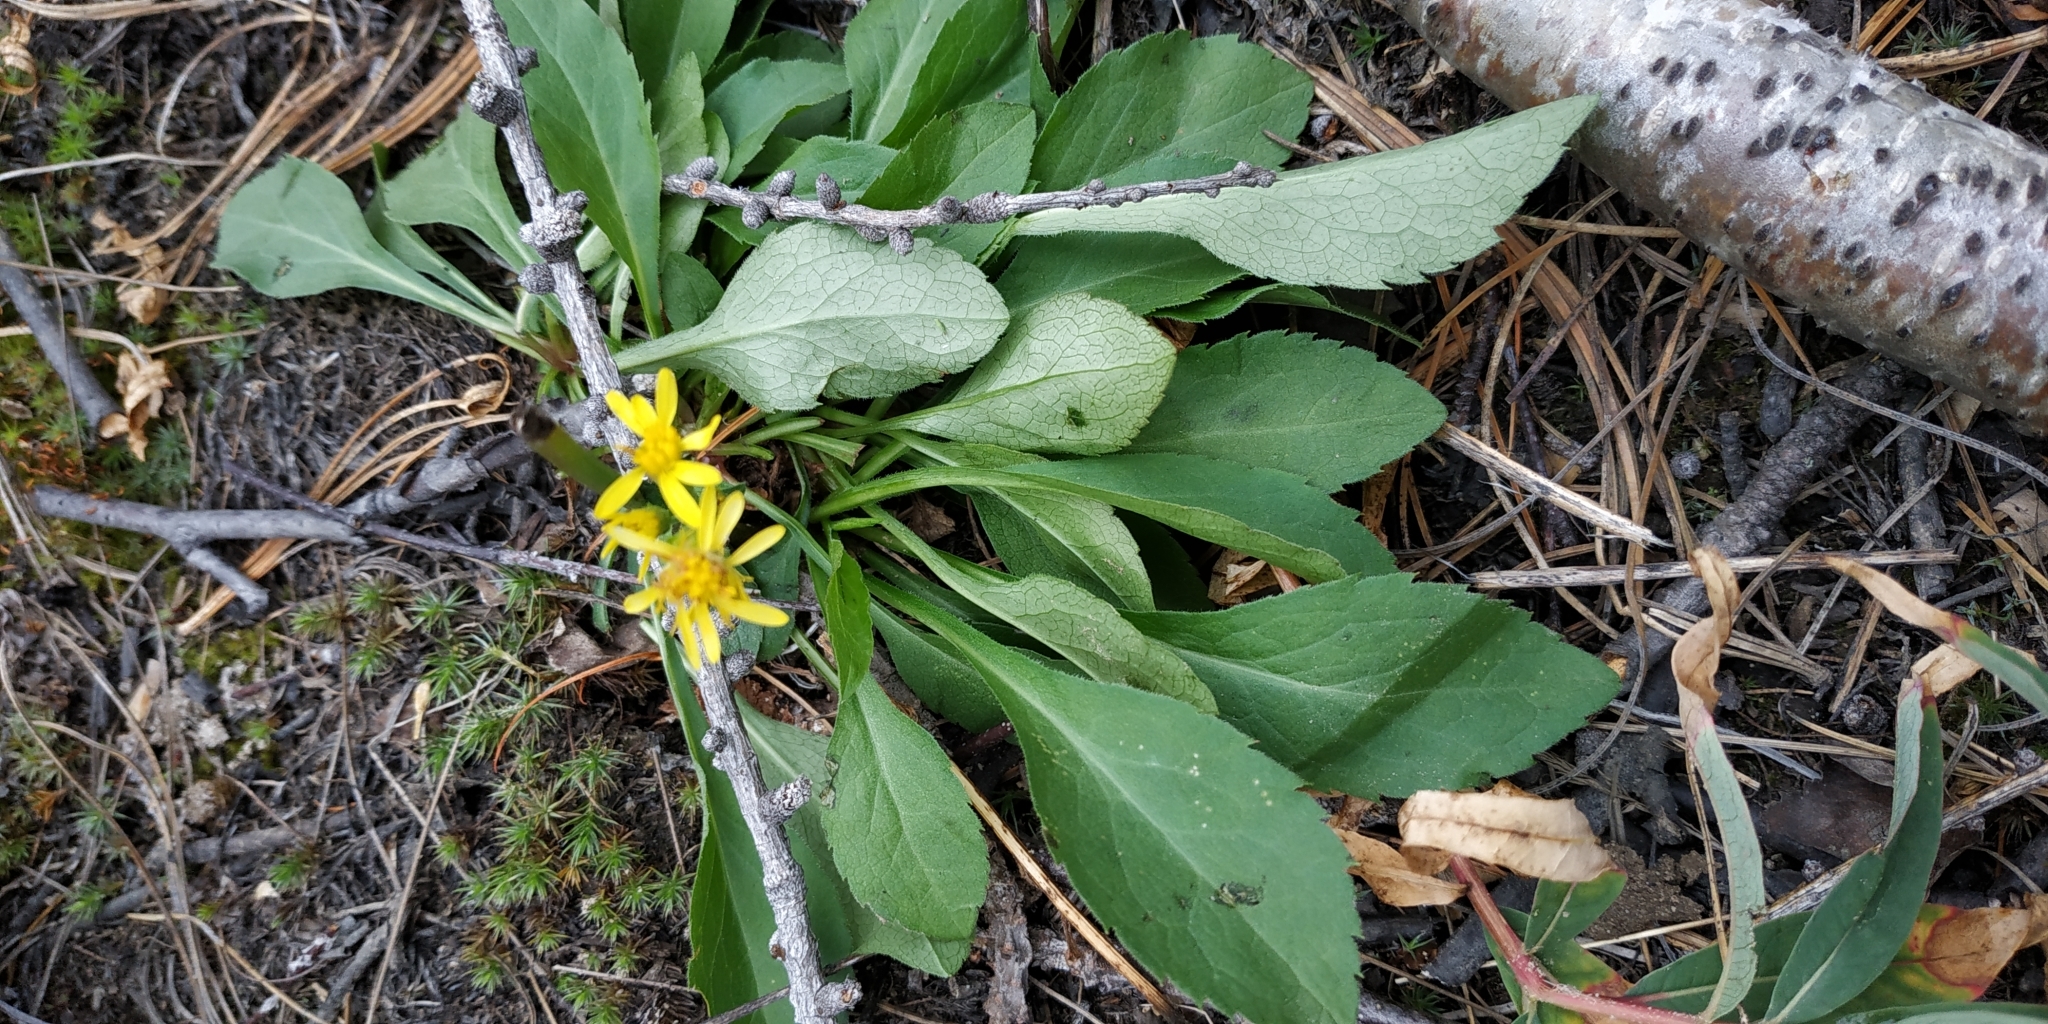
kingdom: Plantae
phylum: Tracheophyta
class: Magnoliopsida
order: Asterales
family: Asteraceae
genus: Solidago
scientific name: Solidago virgaurea
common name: Goldenrod
